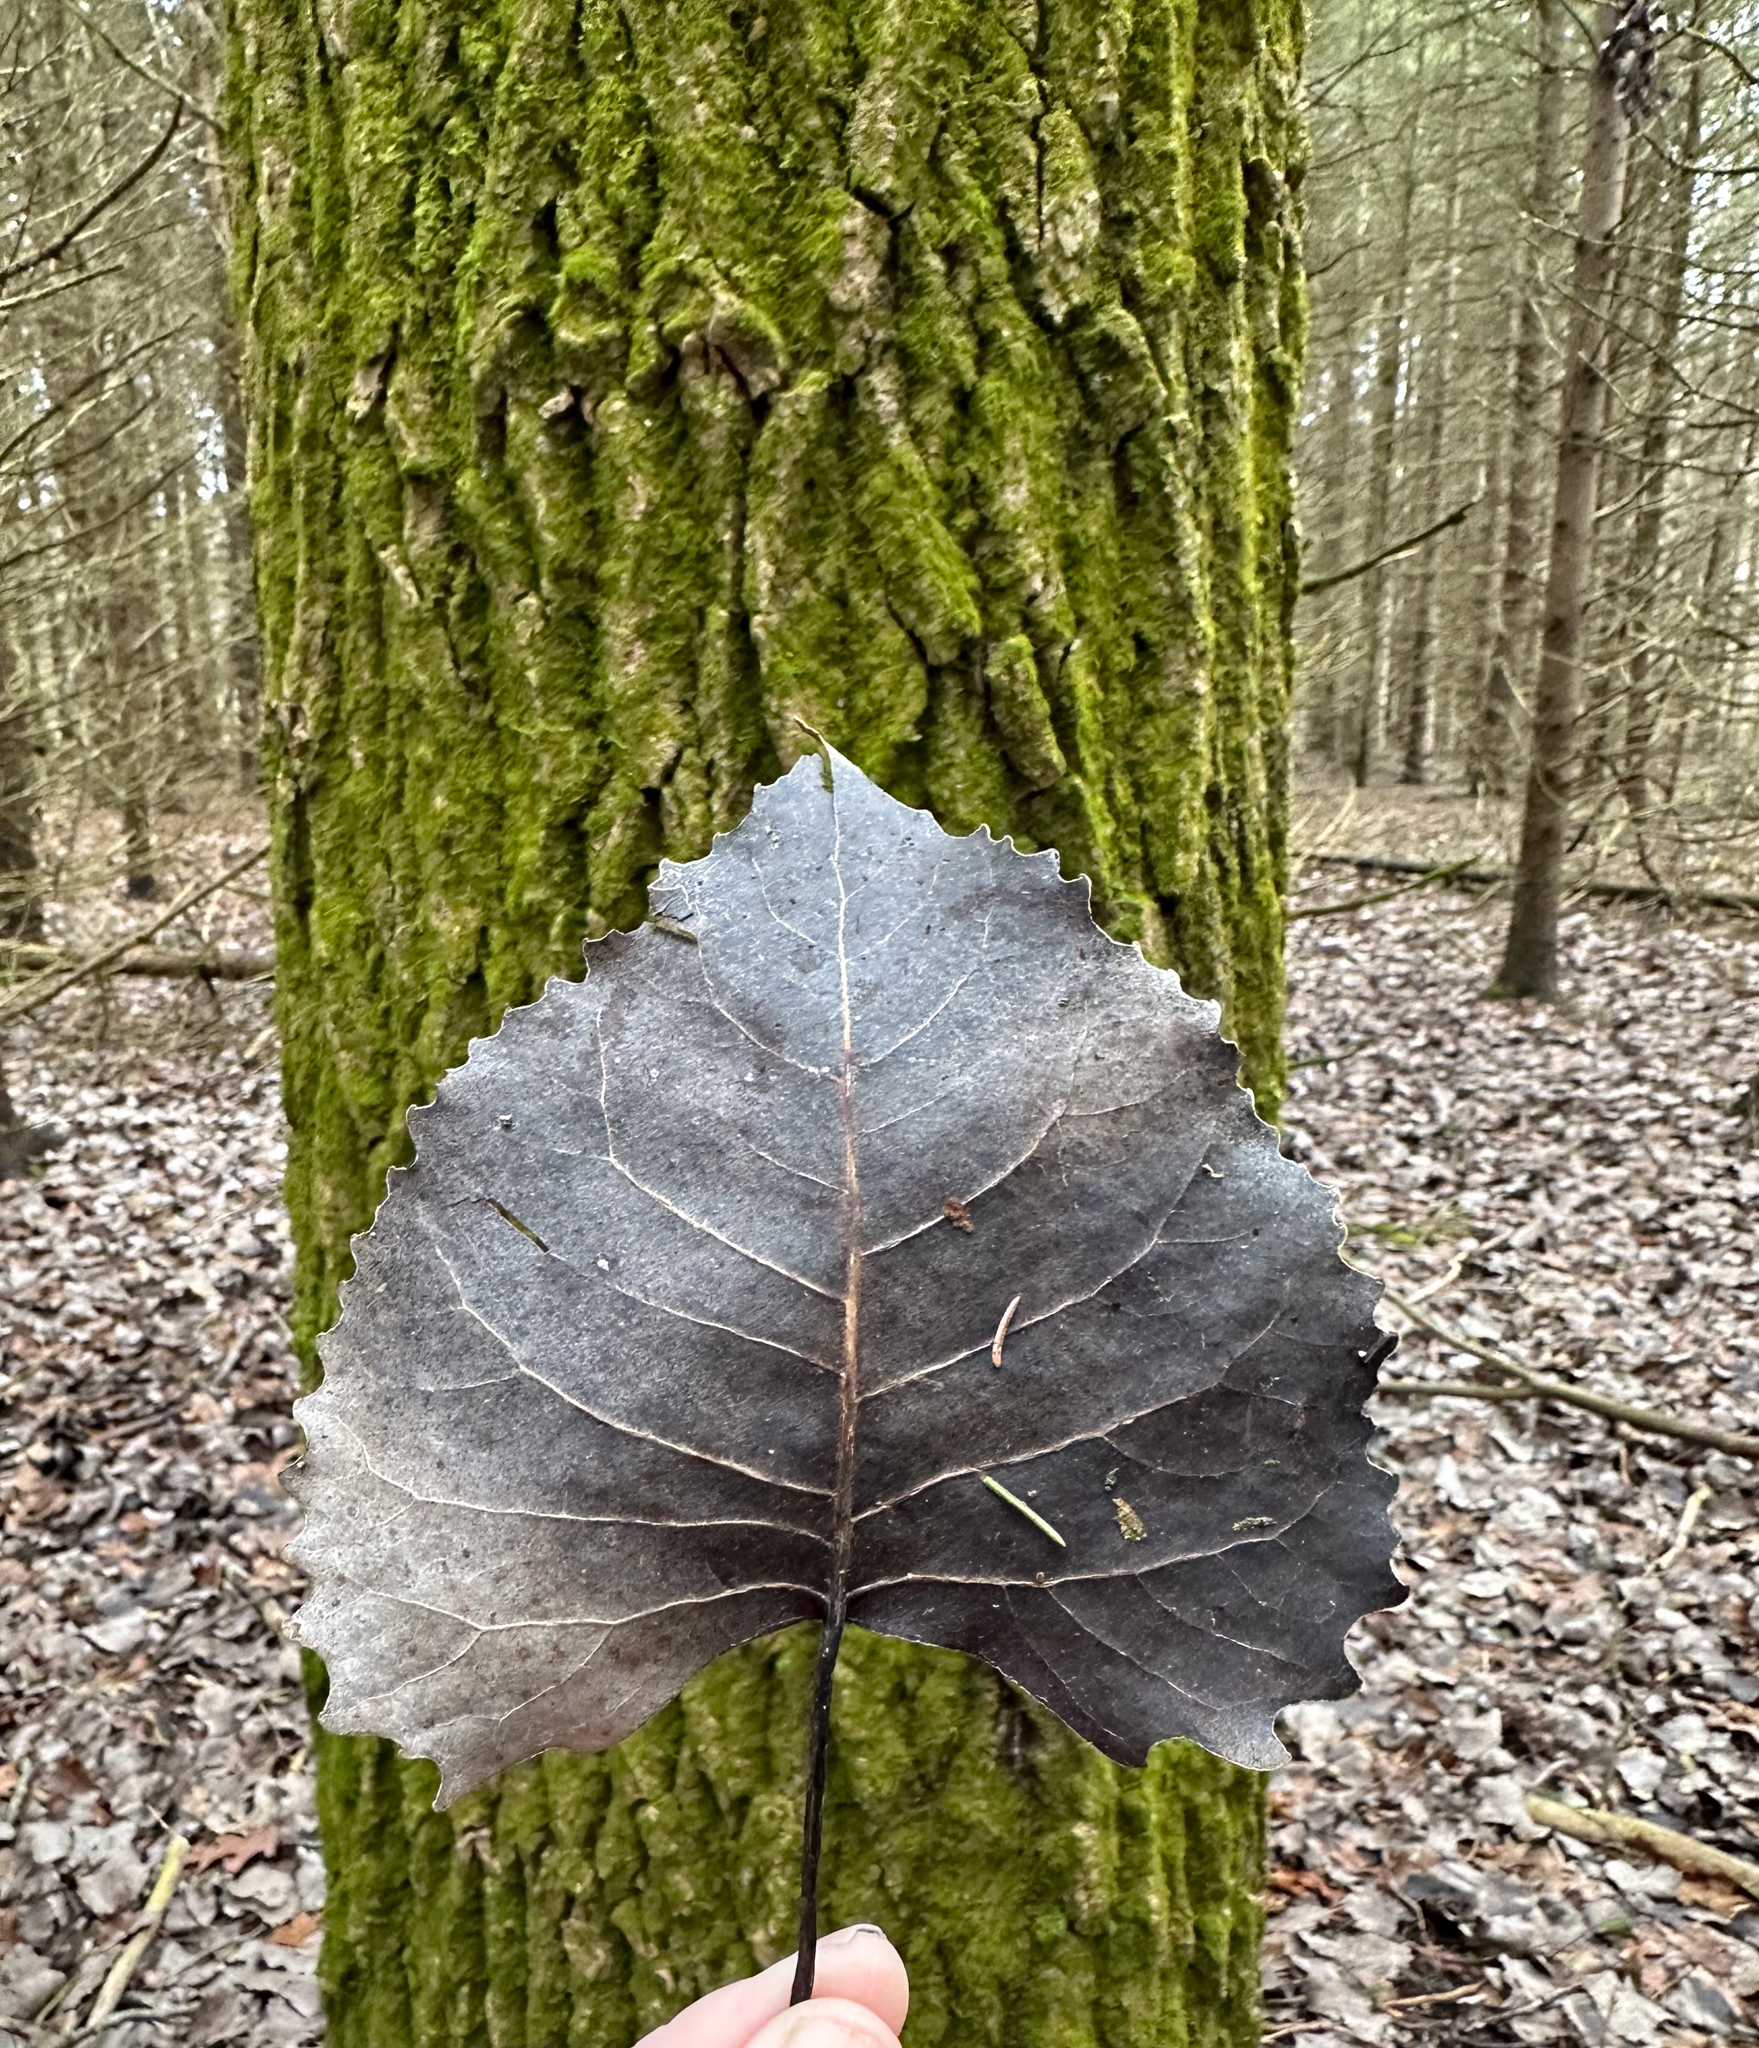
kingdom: Plantae
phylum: Tracheophyta
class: Magnoliopsida
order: Malpighiales
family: Salicaceae
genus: Populus
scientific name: Populus deltoides
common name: Eastern cottonwood
